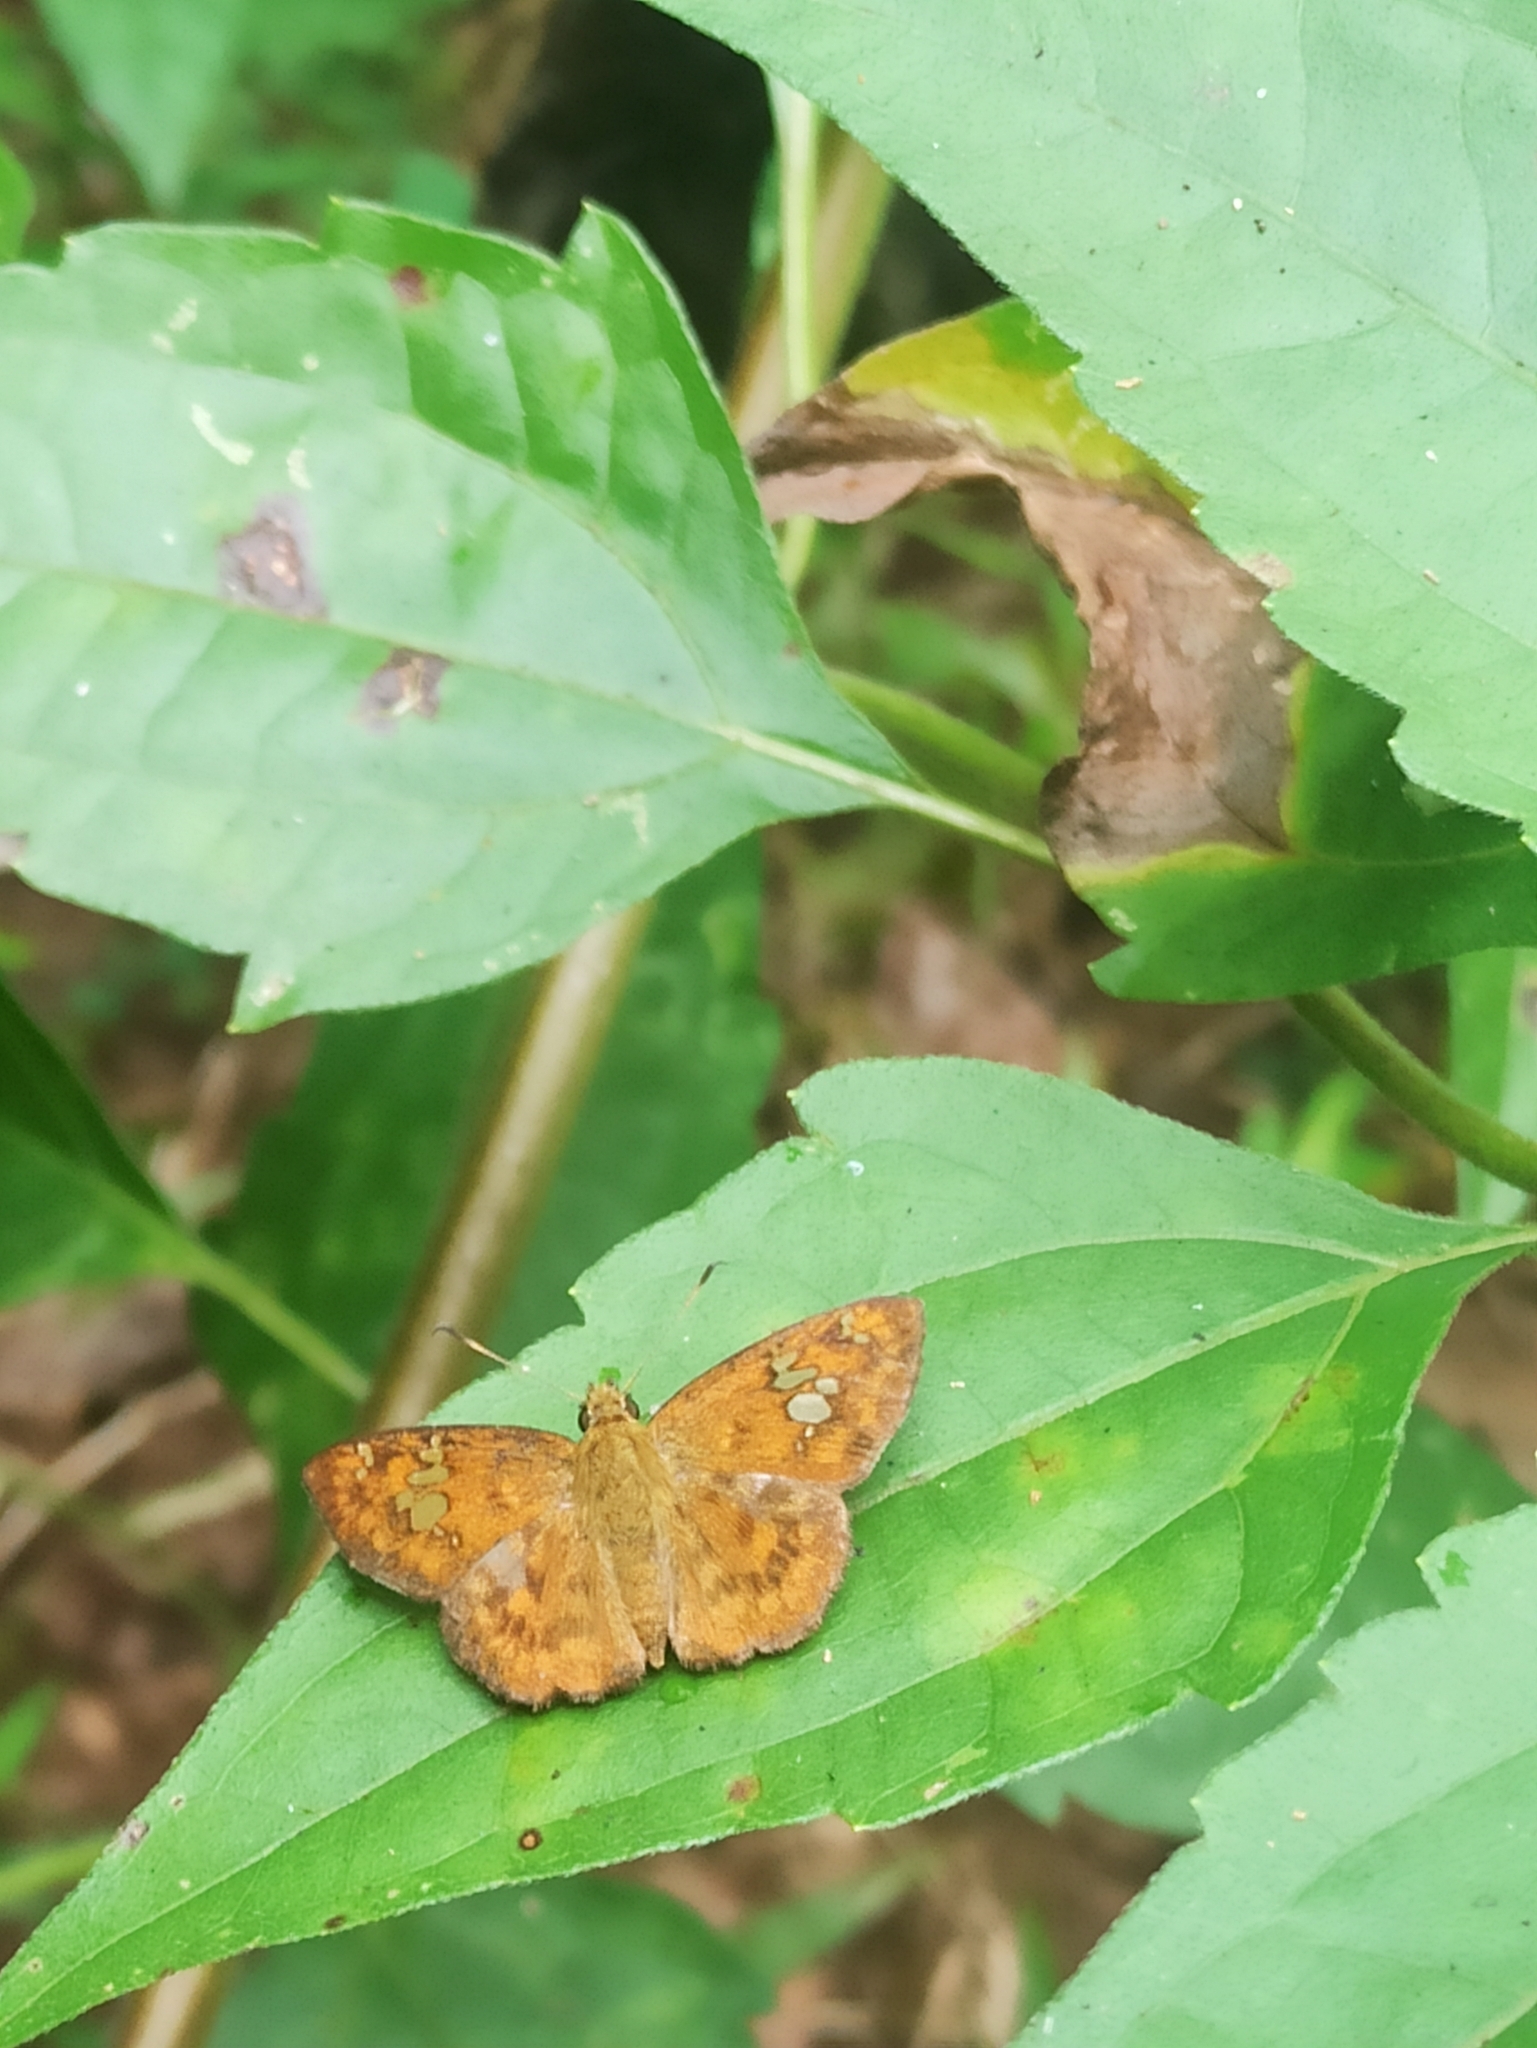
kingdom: Animalia
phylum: Arthropoda
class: Insecta
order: Lepidoptera
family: Hesperiidae
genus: Pseudocoladenia
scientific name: Pseudocoladenia dan
